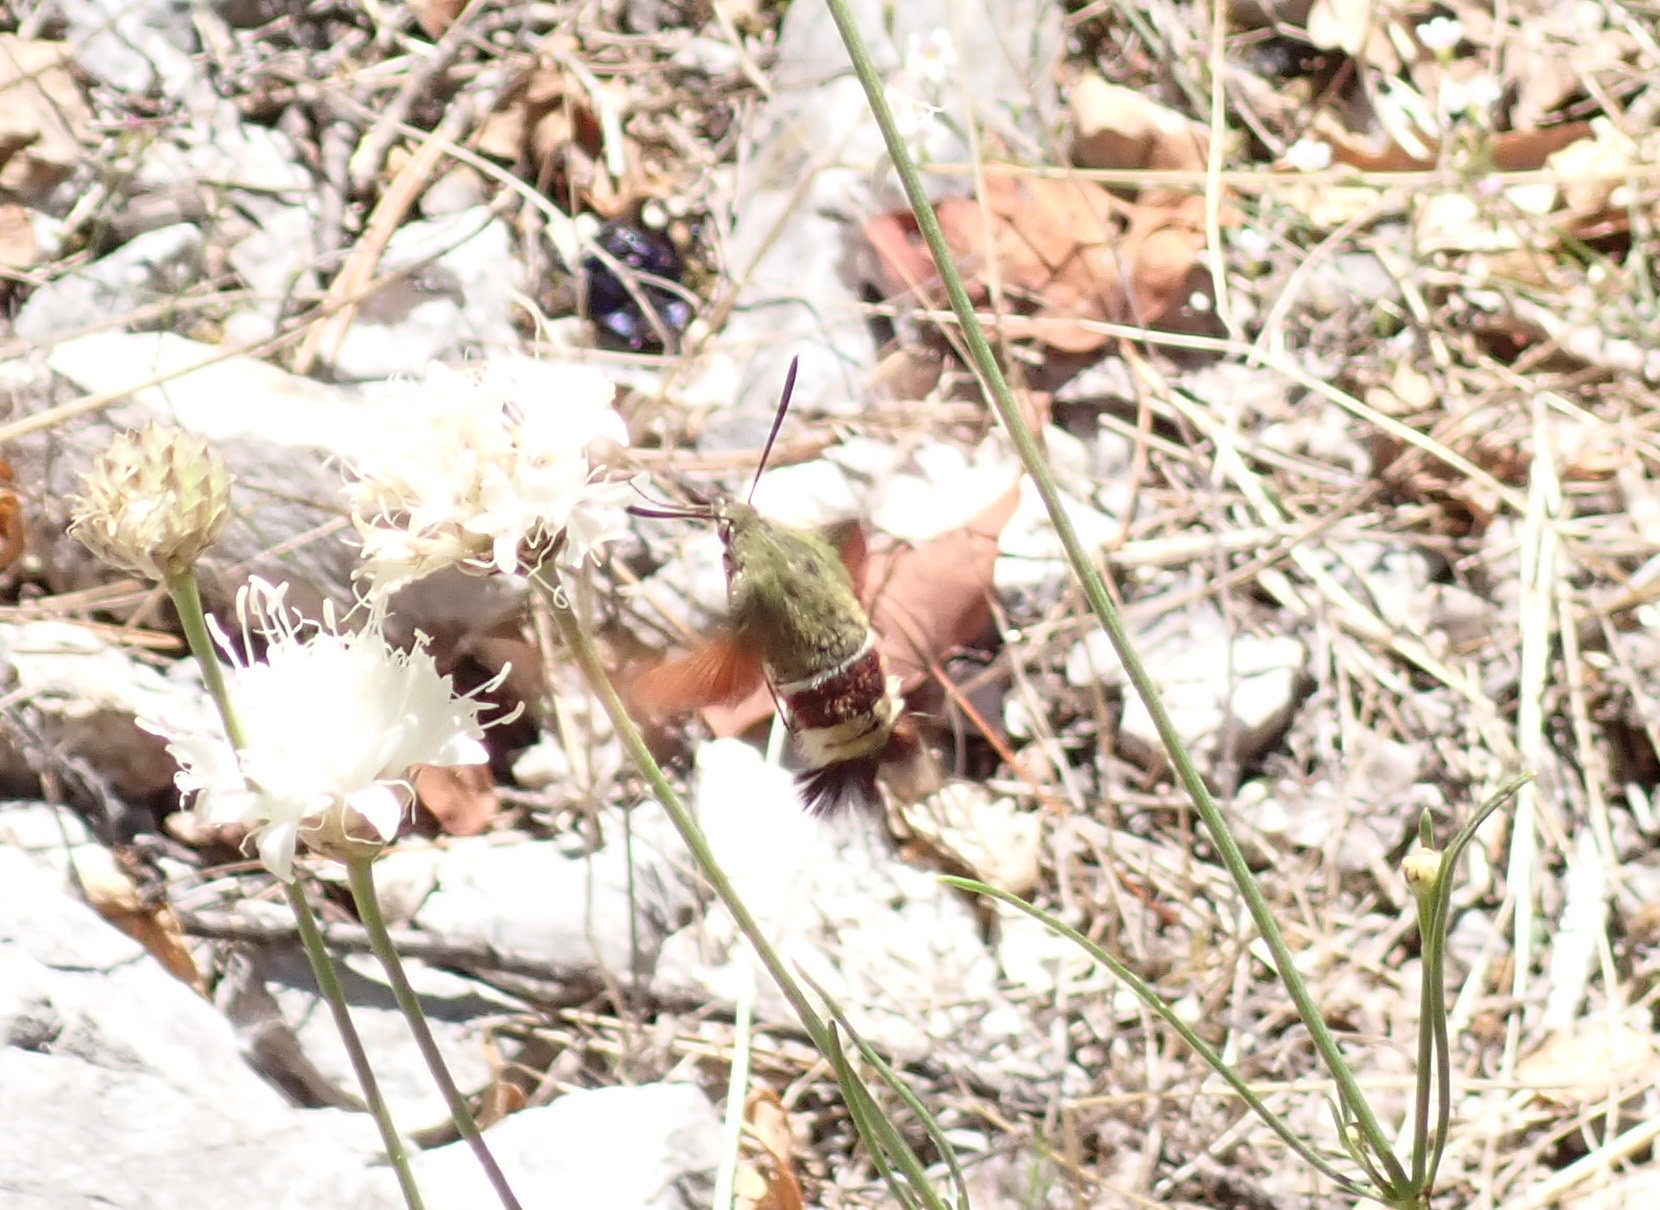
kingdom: Animalia
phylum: Arthropoda
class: Insecta
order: Lepidoptera
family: Sphingidae
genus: Hemaris
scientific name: Hemaris croatica
